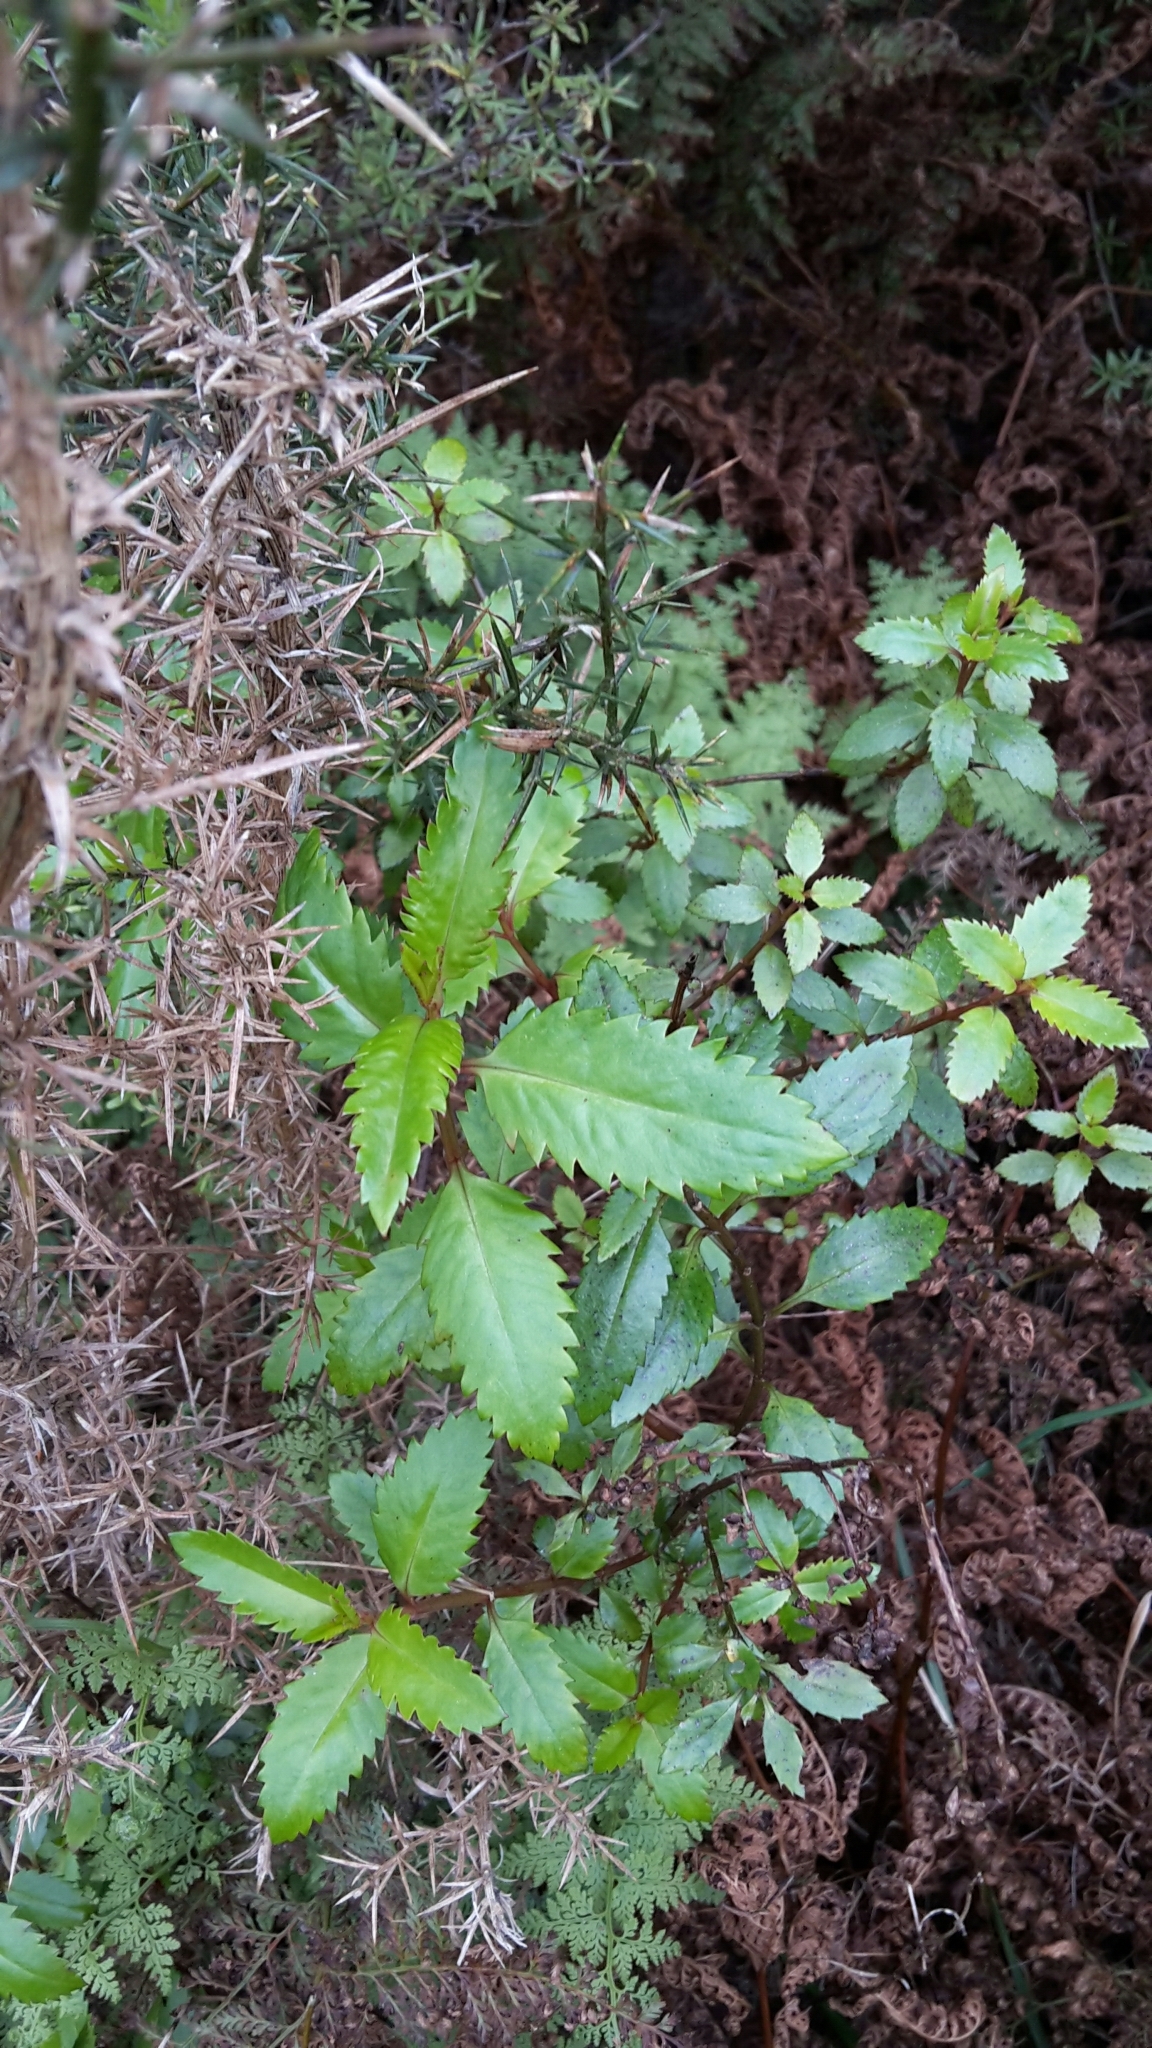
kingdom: Plantae
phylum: Tracheophyta
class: Magnoliopsida
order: Saxifragales
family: Haloragaceae
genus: Haloragis
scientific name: Haloragis erecta
